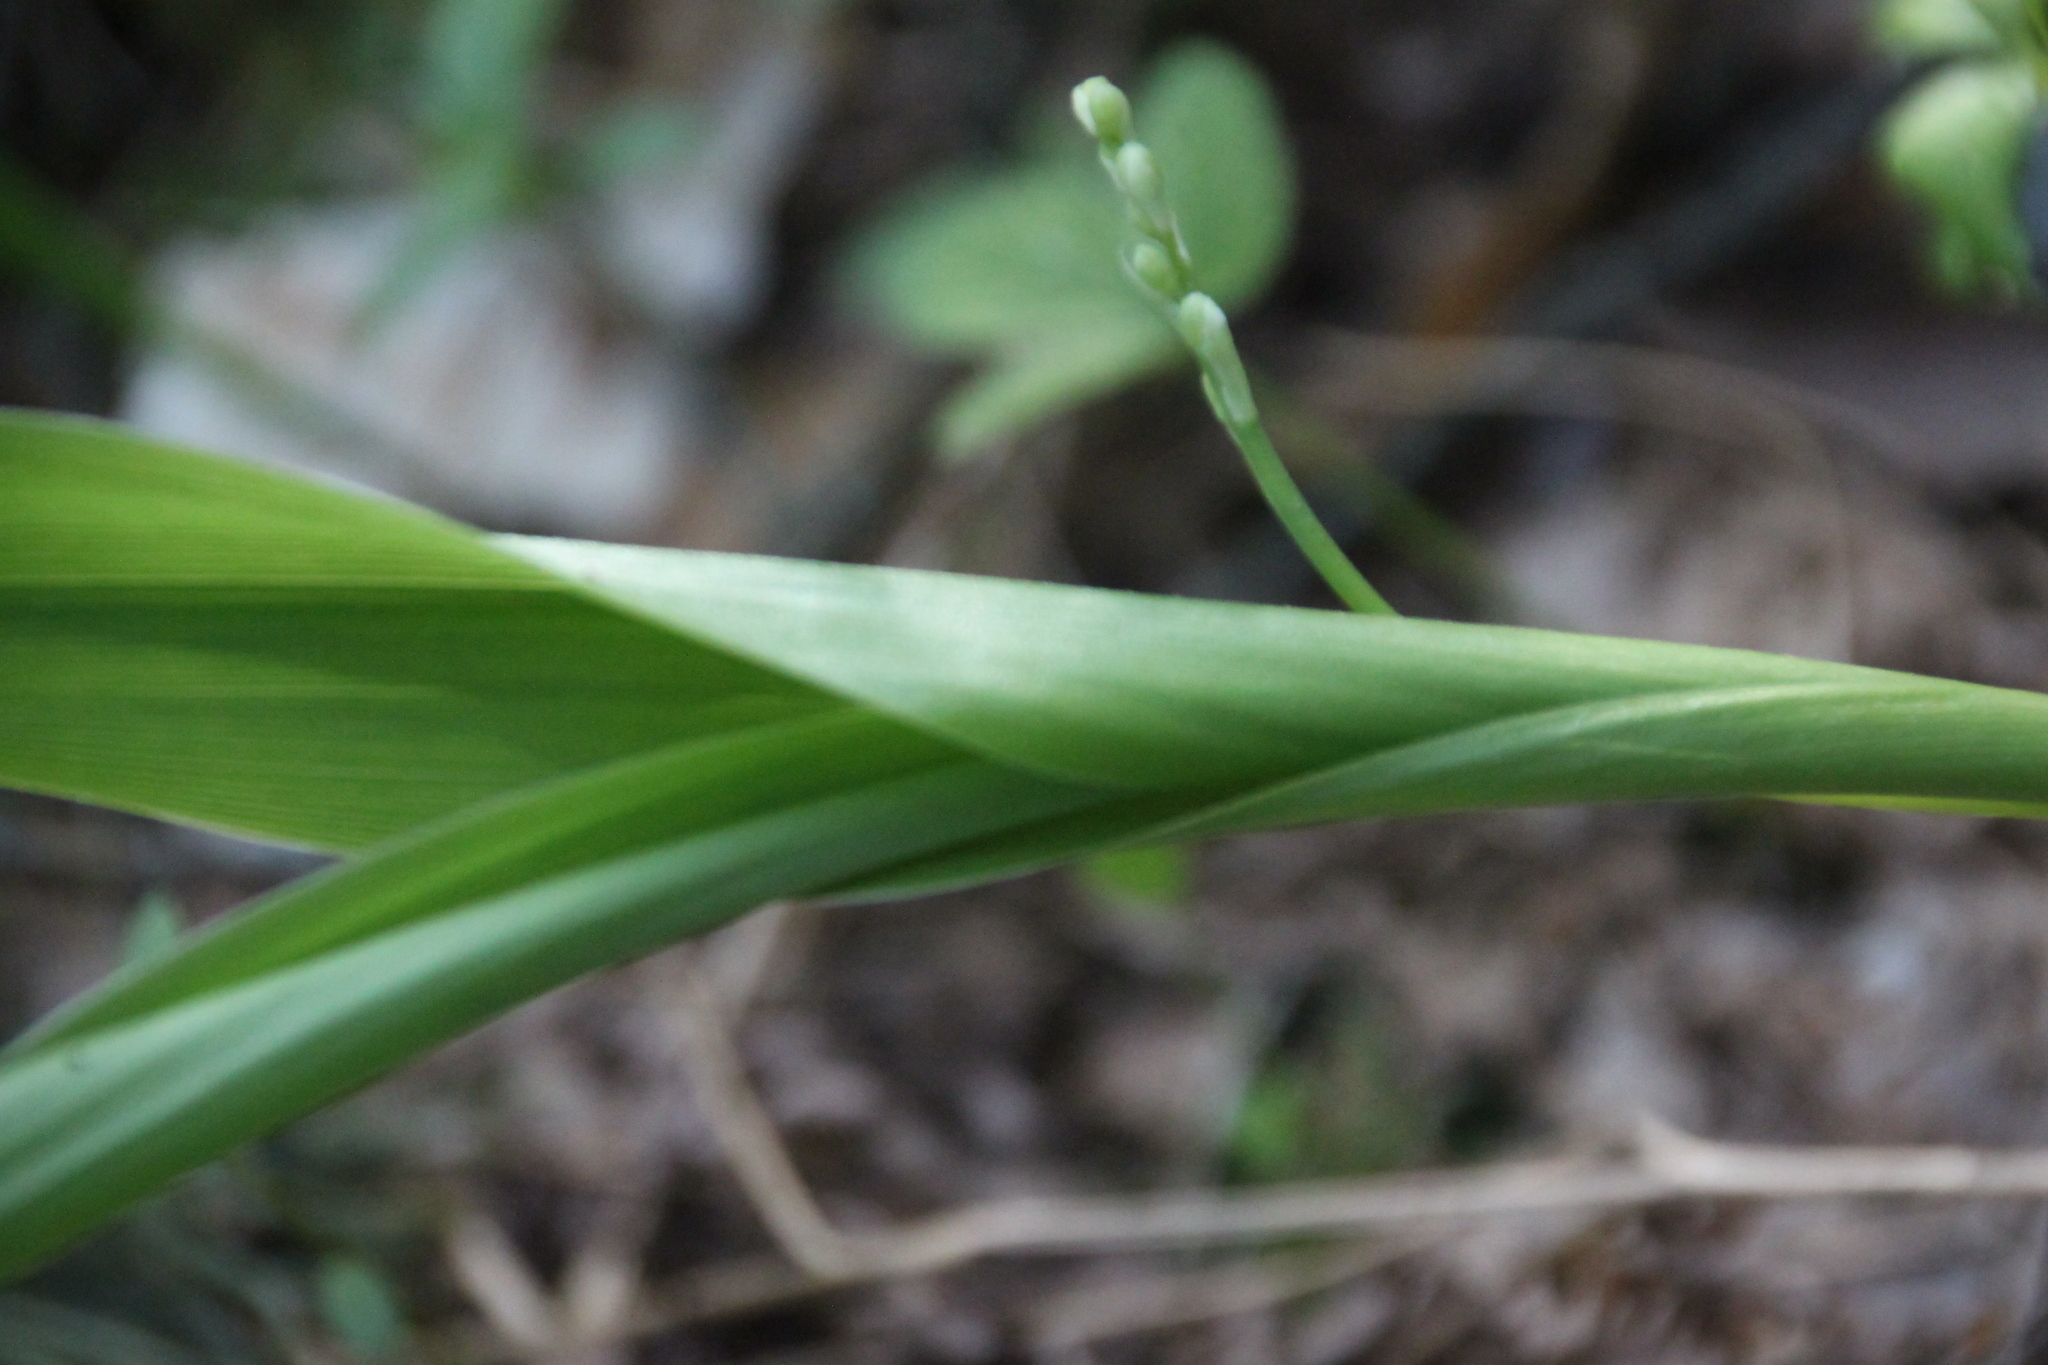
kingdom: Plantae
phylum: Tracheophyta
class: Liliopsida
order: Asparagales
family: Asparagaceae
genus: Convallaria
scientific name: Convallaria majalis
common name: Lily-of-the-valley
